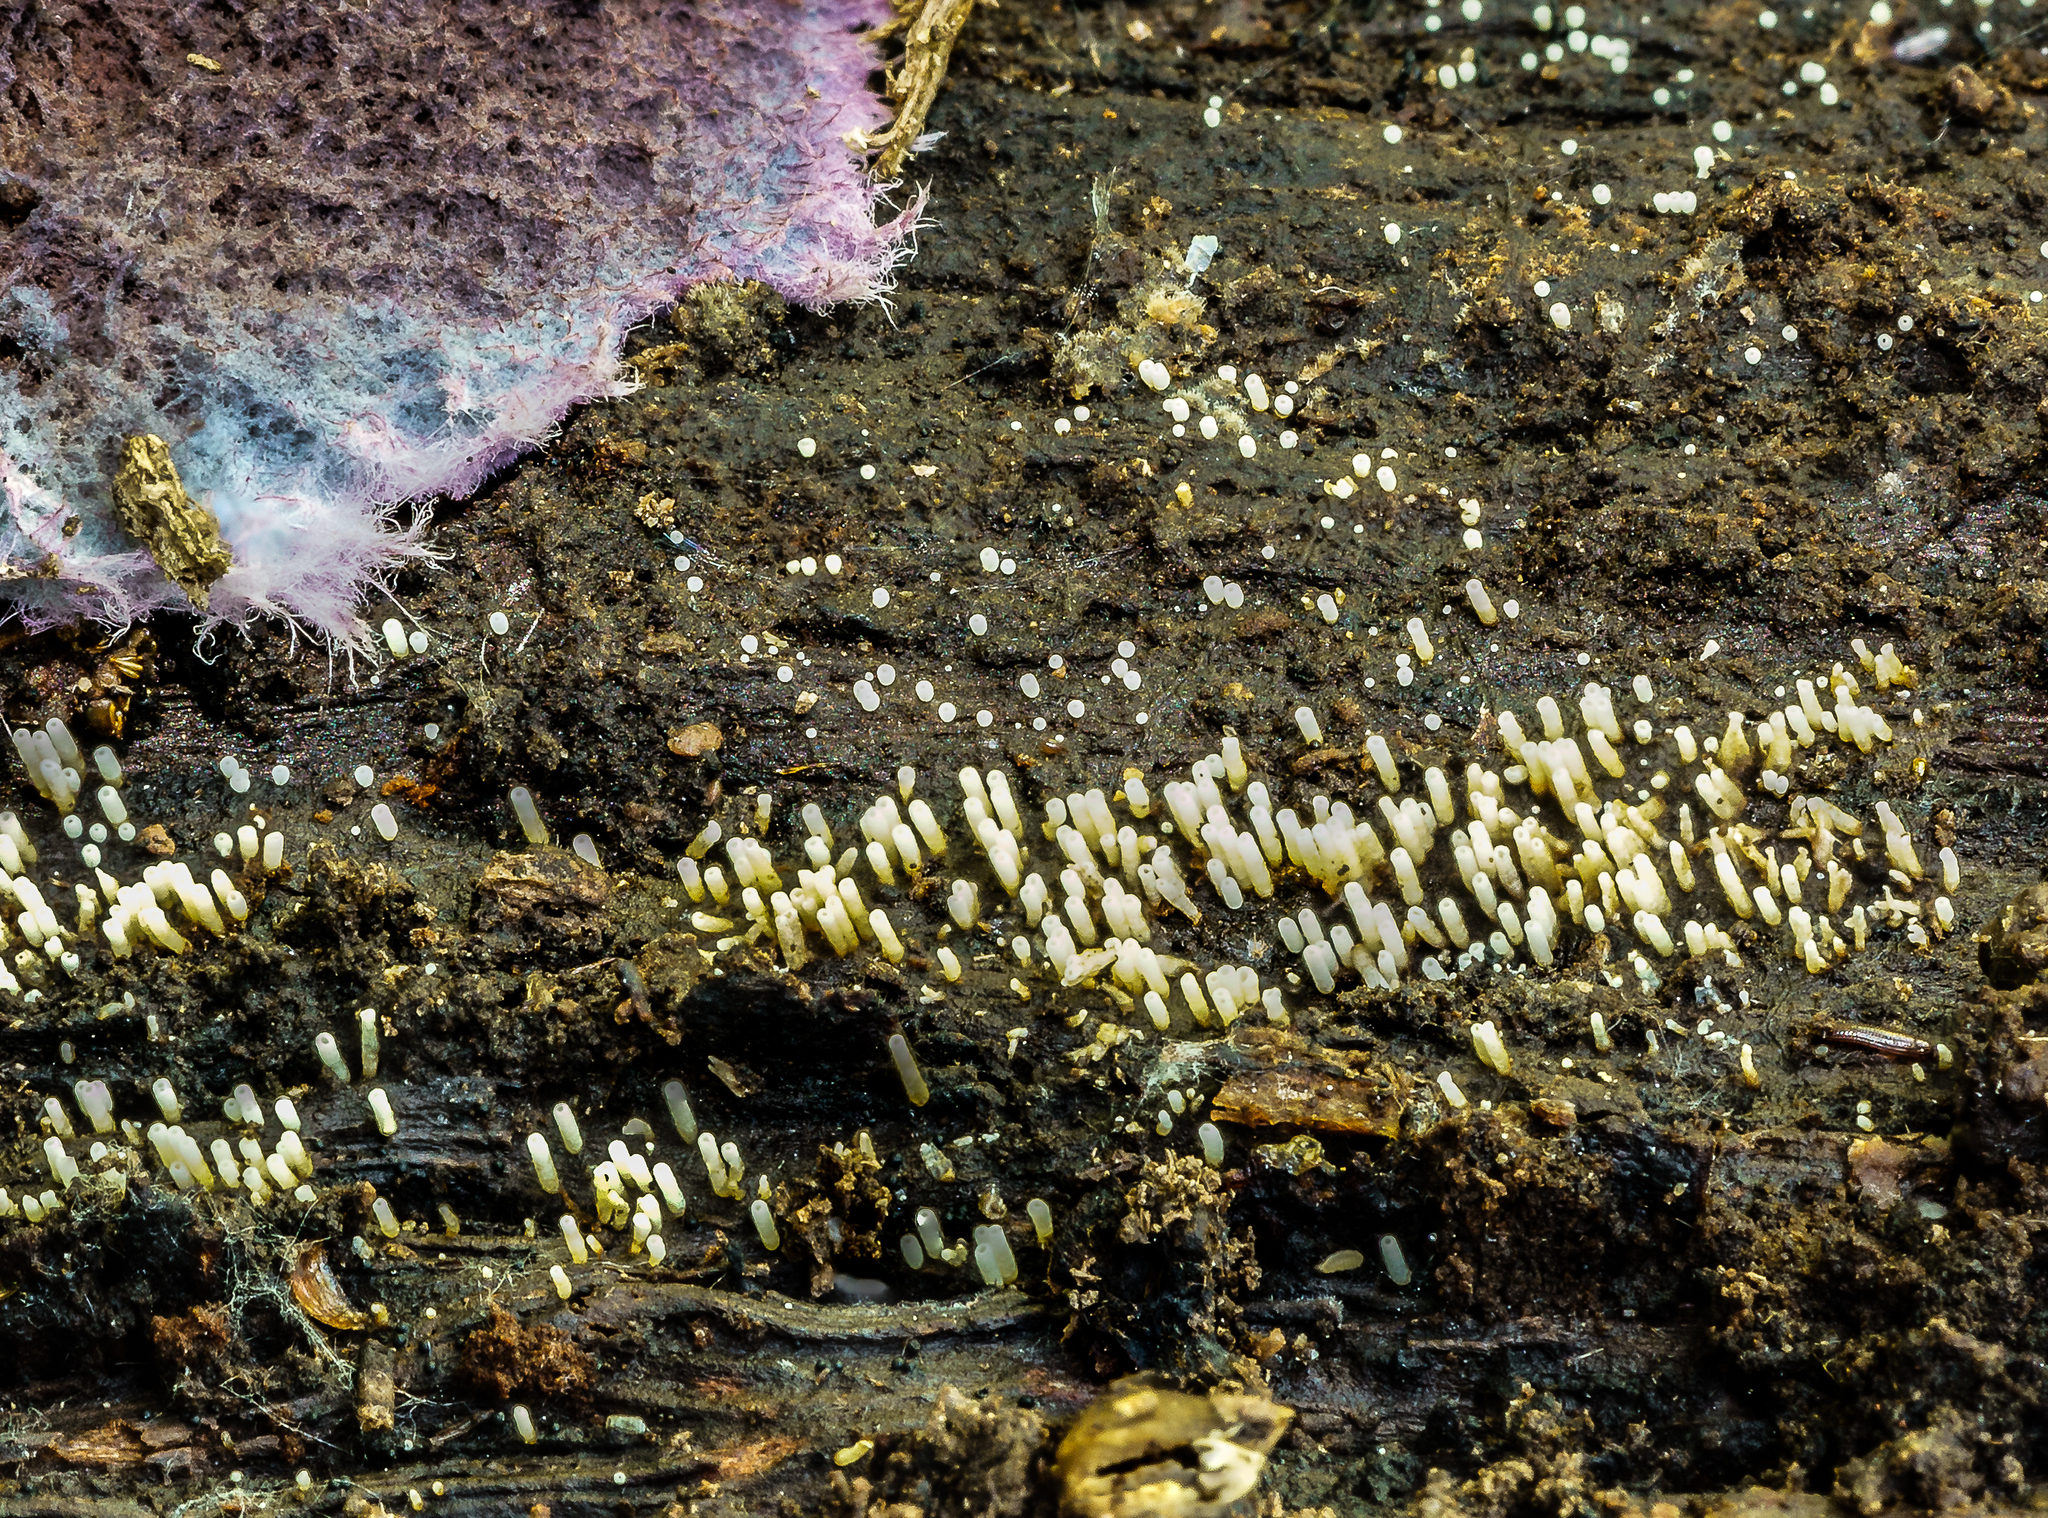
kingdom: Fungi
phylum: Basidiomycota
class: Agaricomycetes
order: Agaricales
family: Marasmiaceae
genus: Henningsomyces
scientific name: Henningsomyces candidus
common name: White tubelet
